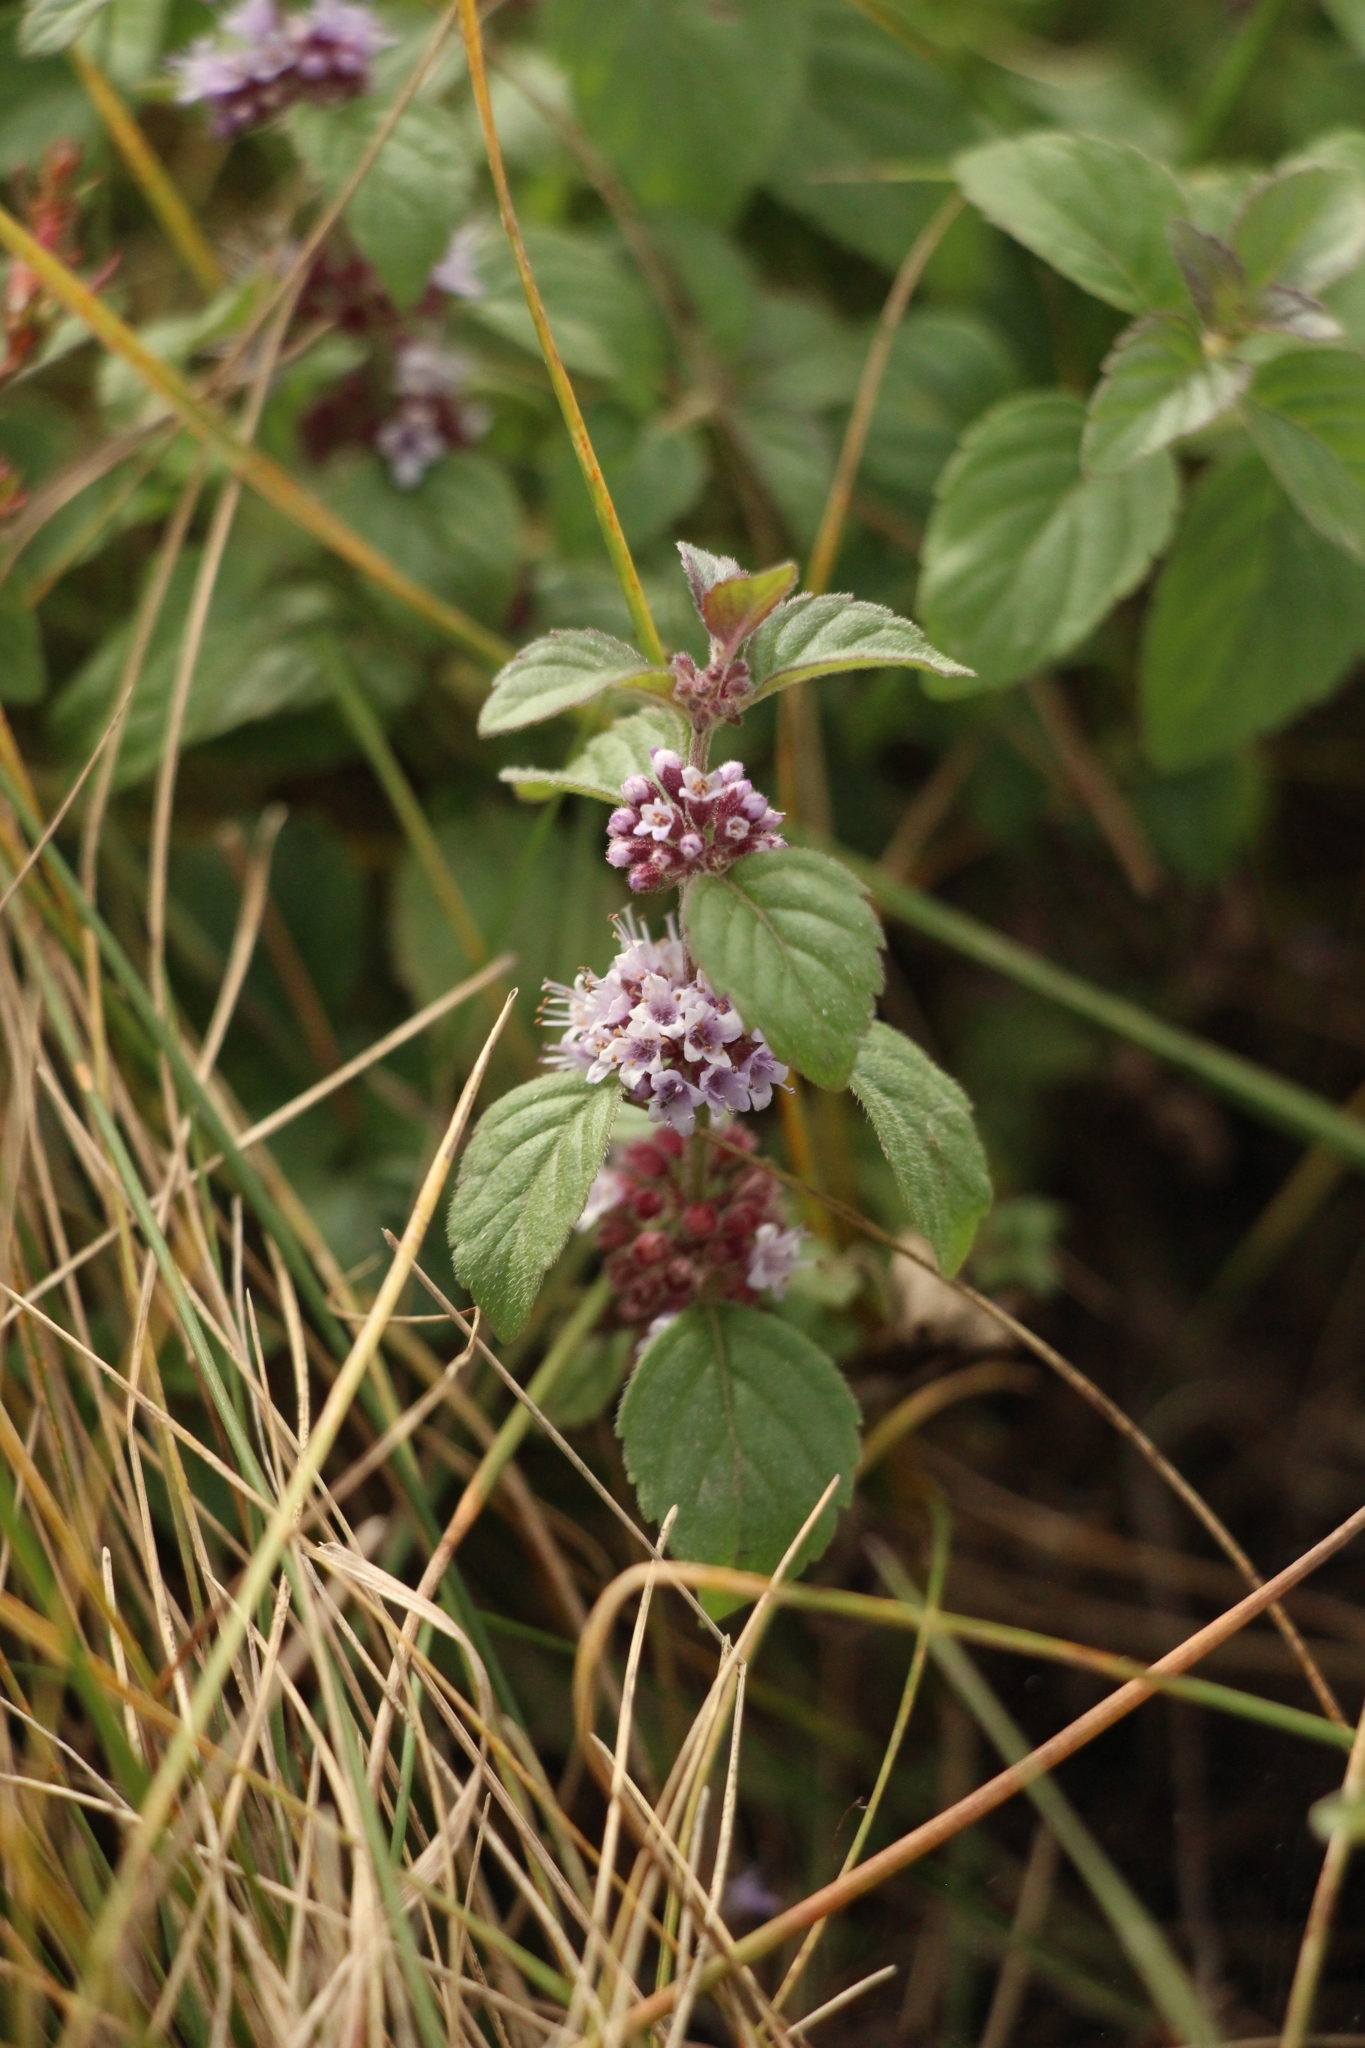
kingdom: Plantae
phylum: Tracheophyta
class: Magnoliopsida
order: Lamiales
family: Lamiaceae
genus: Mentha
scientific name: Mentha arvensis
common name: Corn mint
